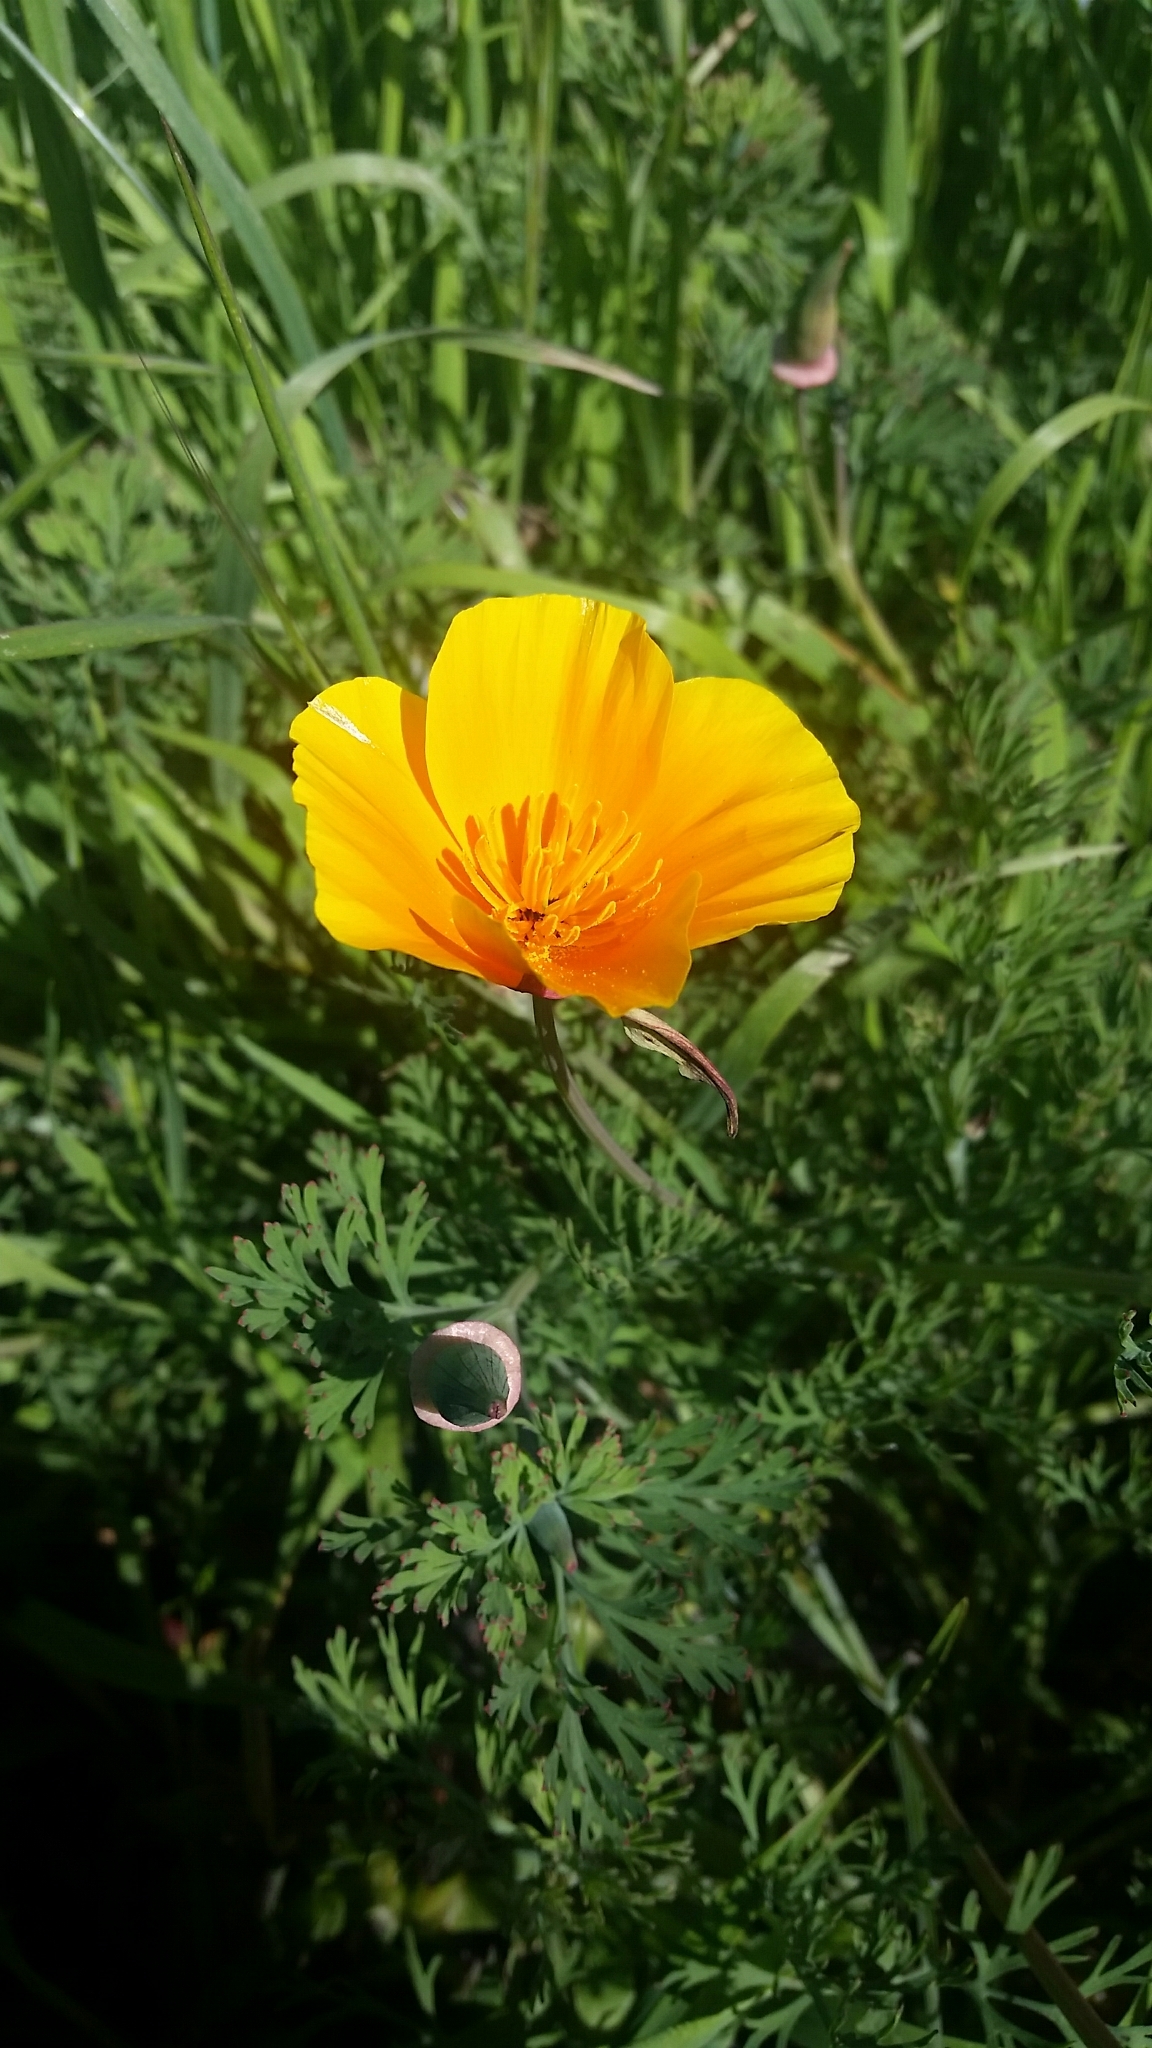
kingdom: Plantae
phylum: Tracheophyta
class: Magnoliopsida
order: Ranunculales
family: Papaveraceae
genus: Eschscholzia
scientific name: Eschscholzia californica
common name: California poppy
